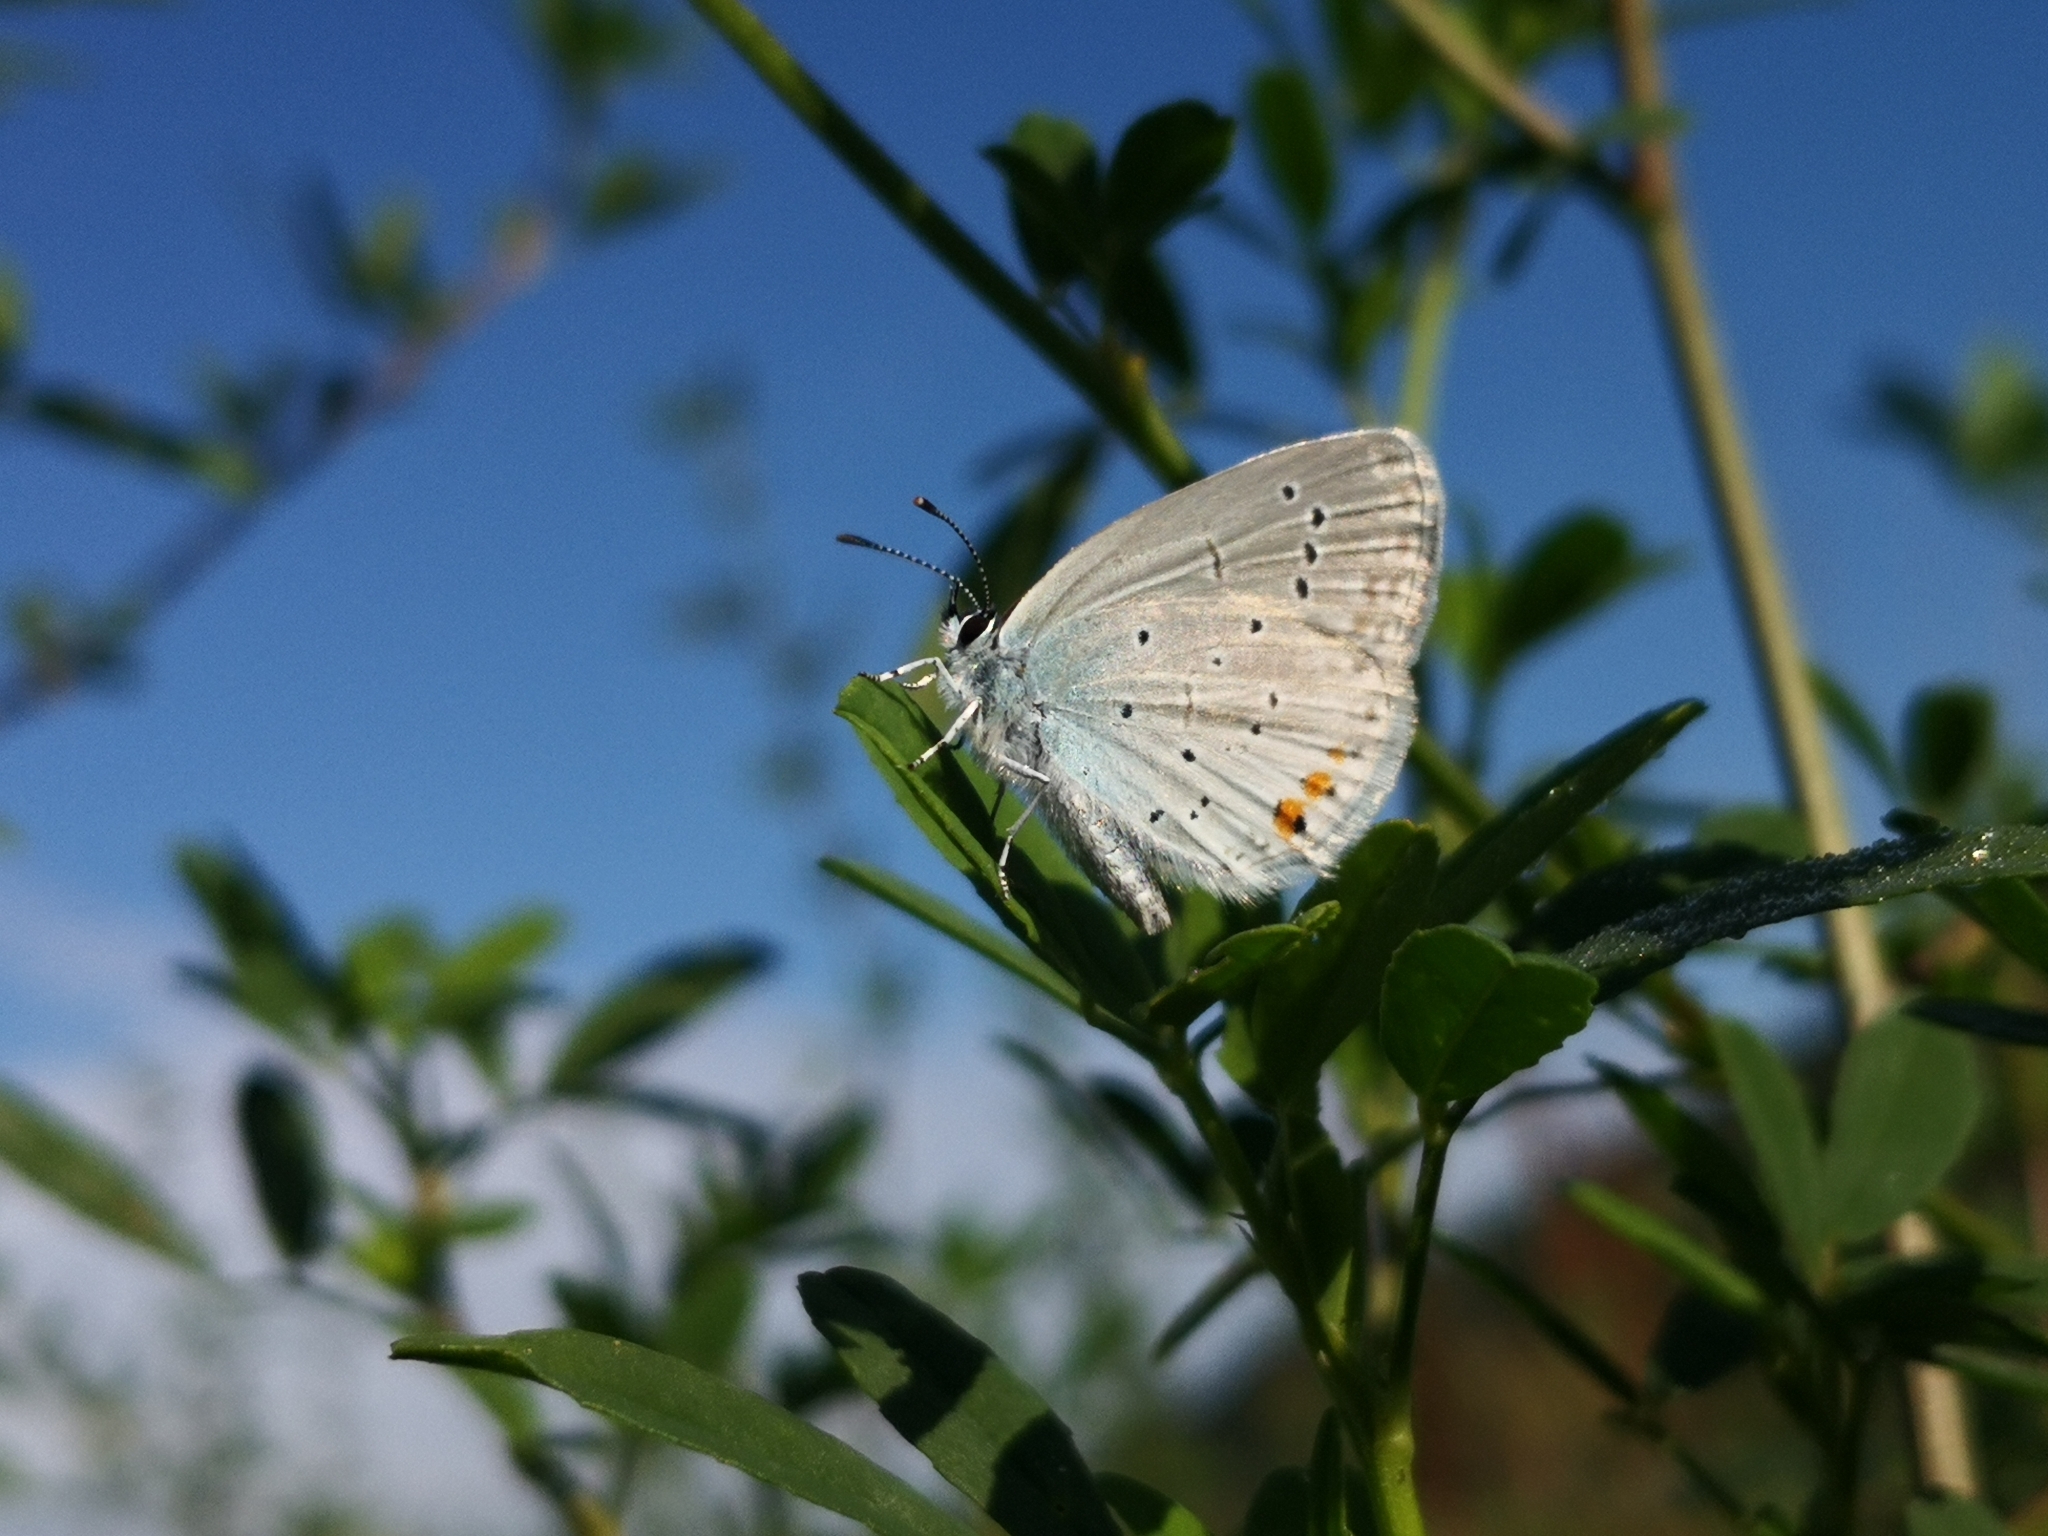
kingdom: Animalia
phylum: Arthropoda
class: Insecta
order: Lepidoptera
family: Lycaenidae
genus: Elkalyce
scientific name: Elkalyce argiades
